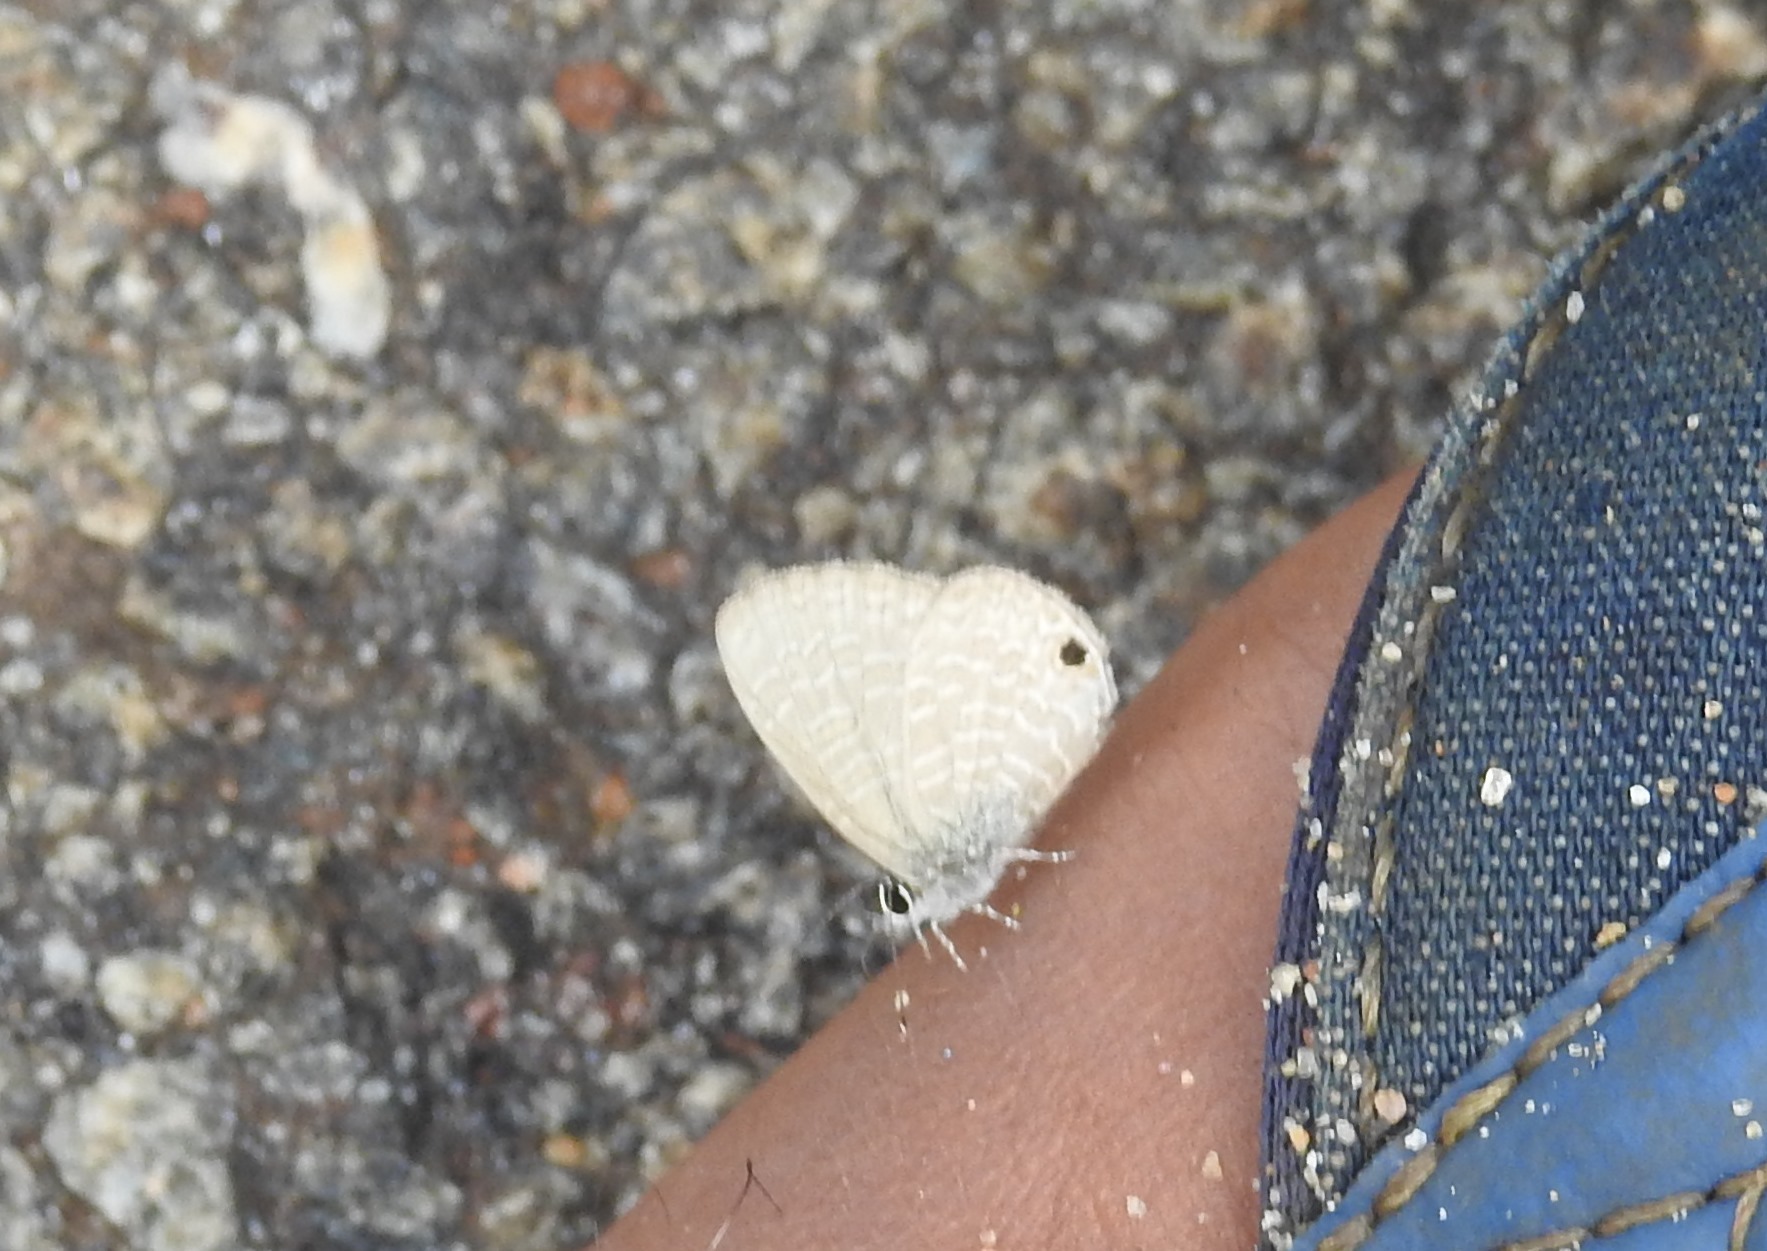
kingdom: Animalia
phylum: Arthropoda
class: Insecta
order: Lepidoptera
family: Lycaenidae
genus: Prosotas
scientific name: Prosotas dubiosa
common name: Tailless lineblue
